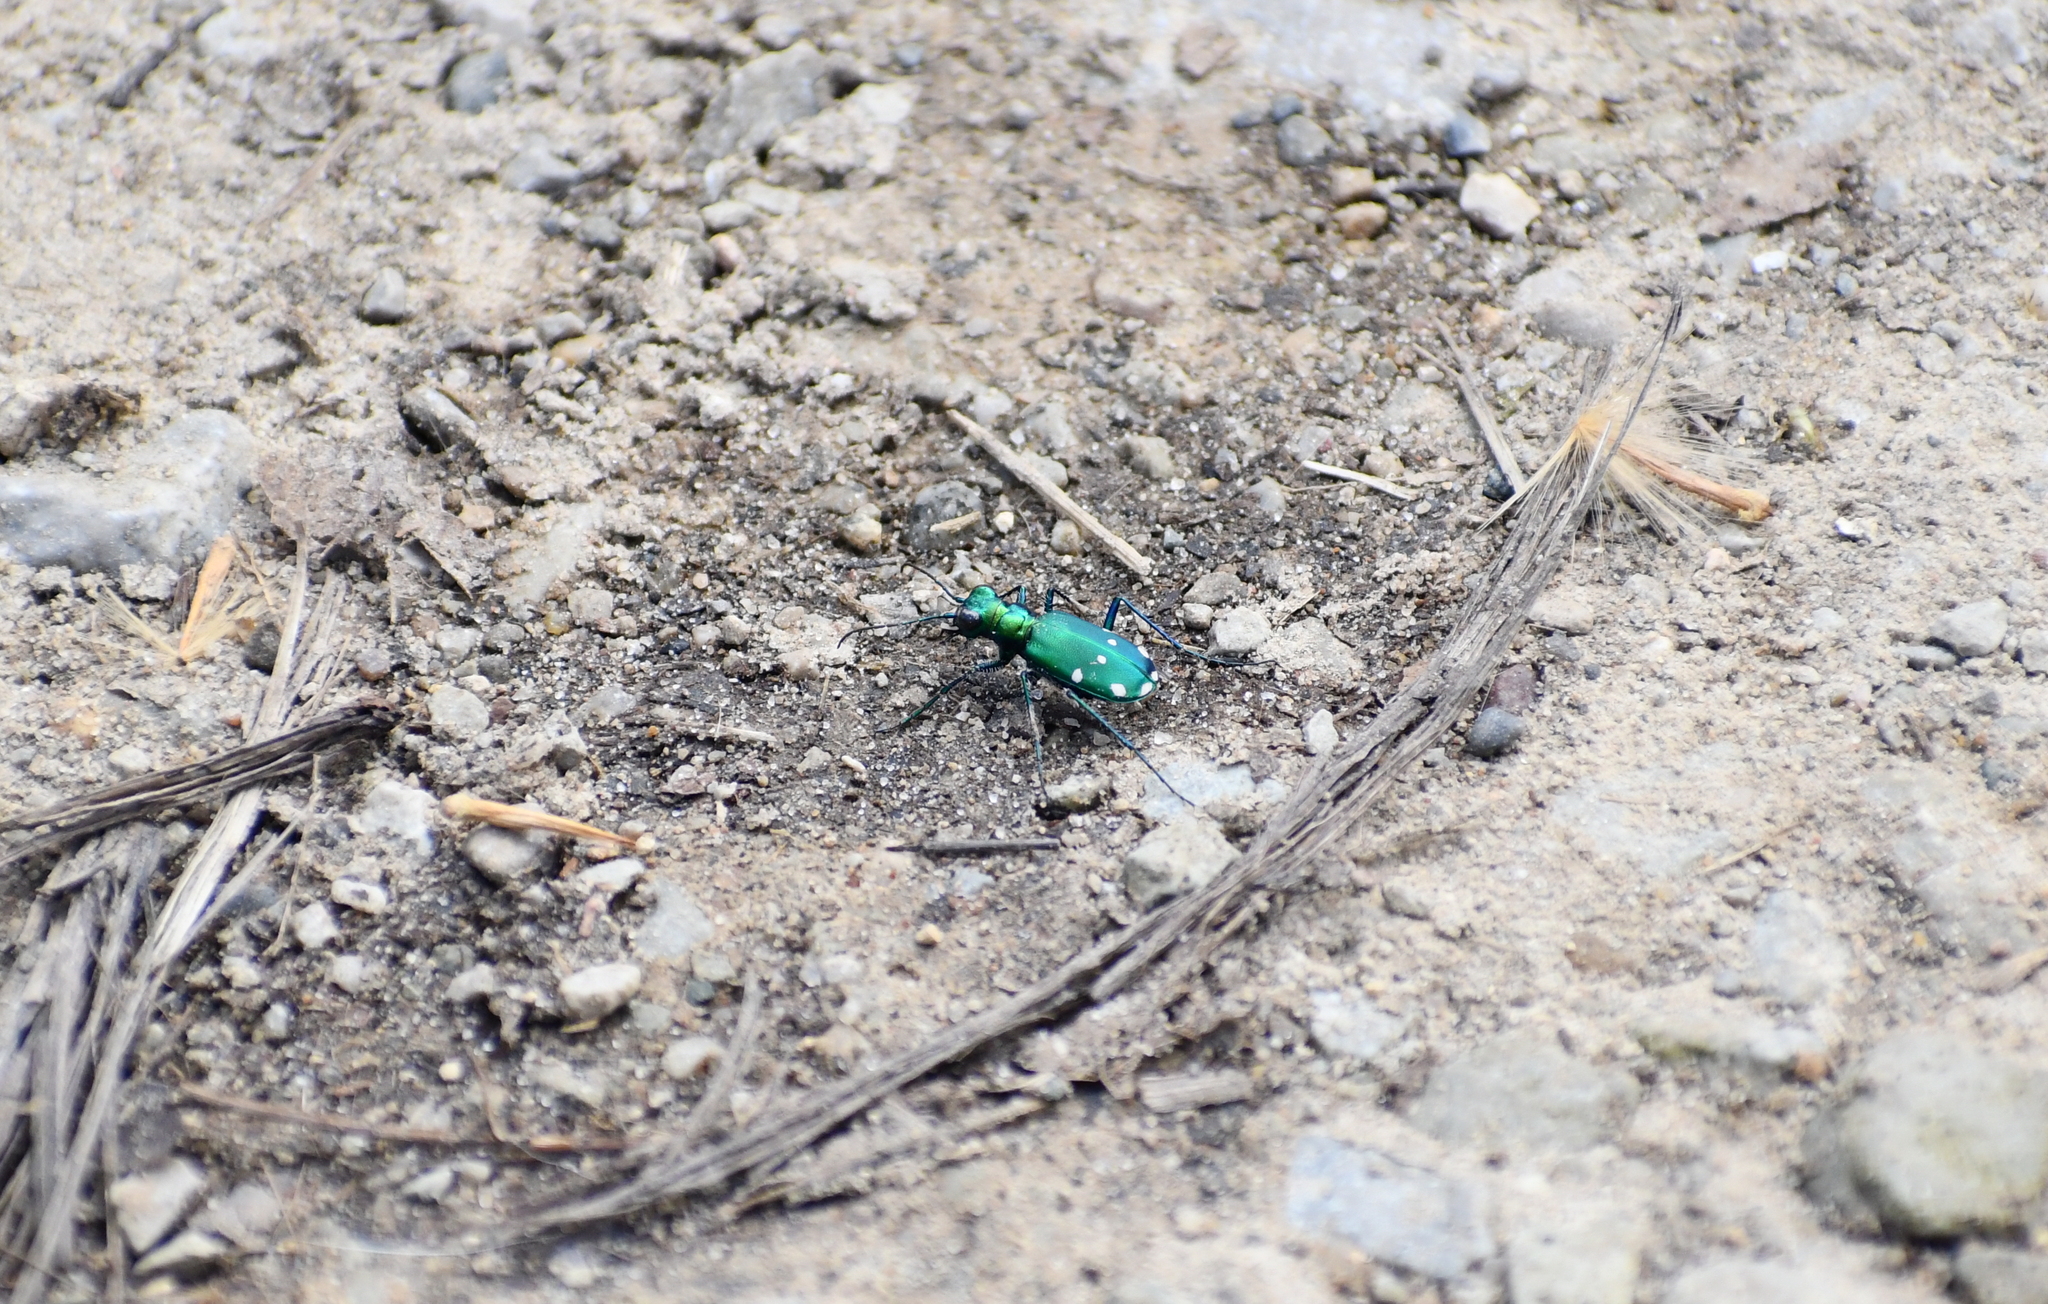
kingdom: Animalia
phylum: Arthropoda
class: Insecta
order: Coleoptera
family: Carabidae
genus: Cicindela
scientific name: Cicindela sexguttata
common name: Six-spotted tiger beetle
